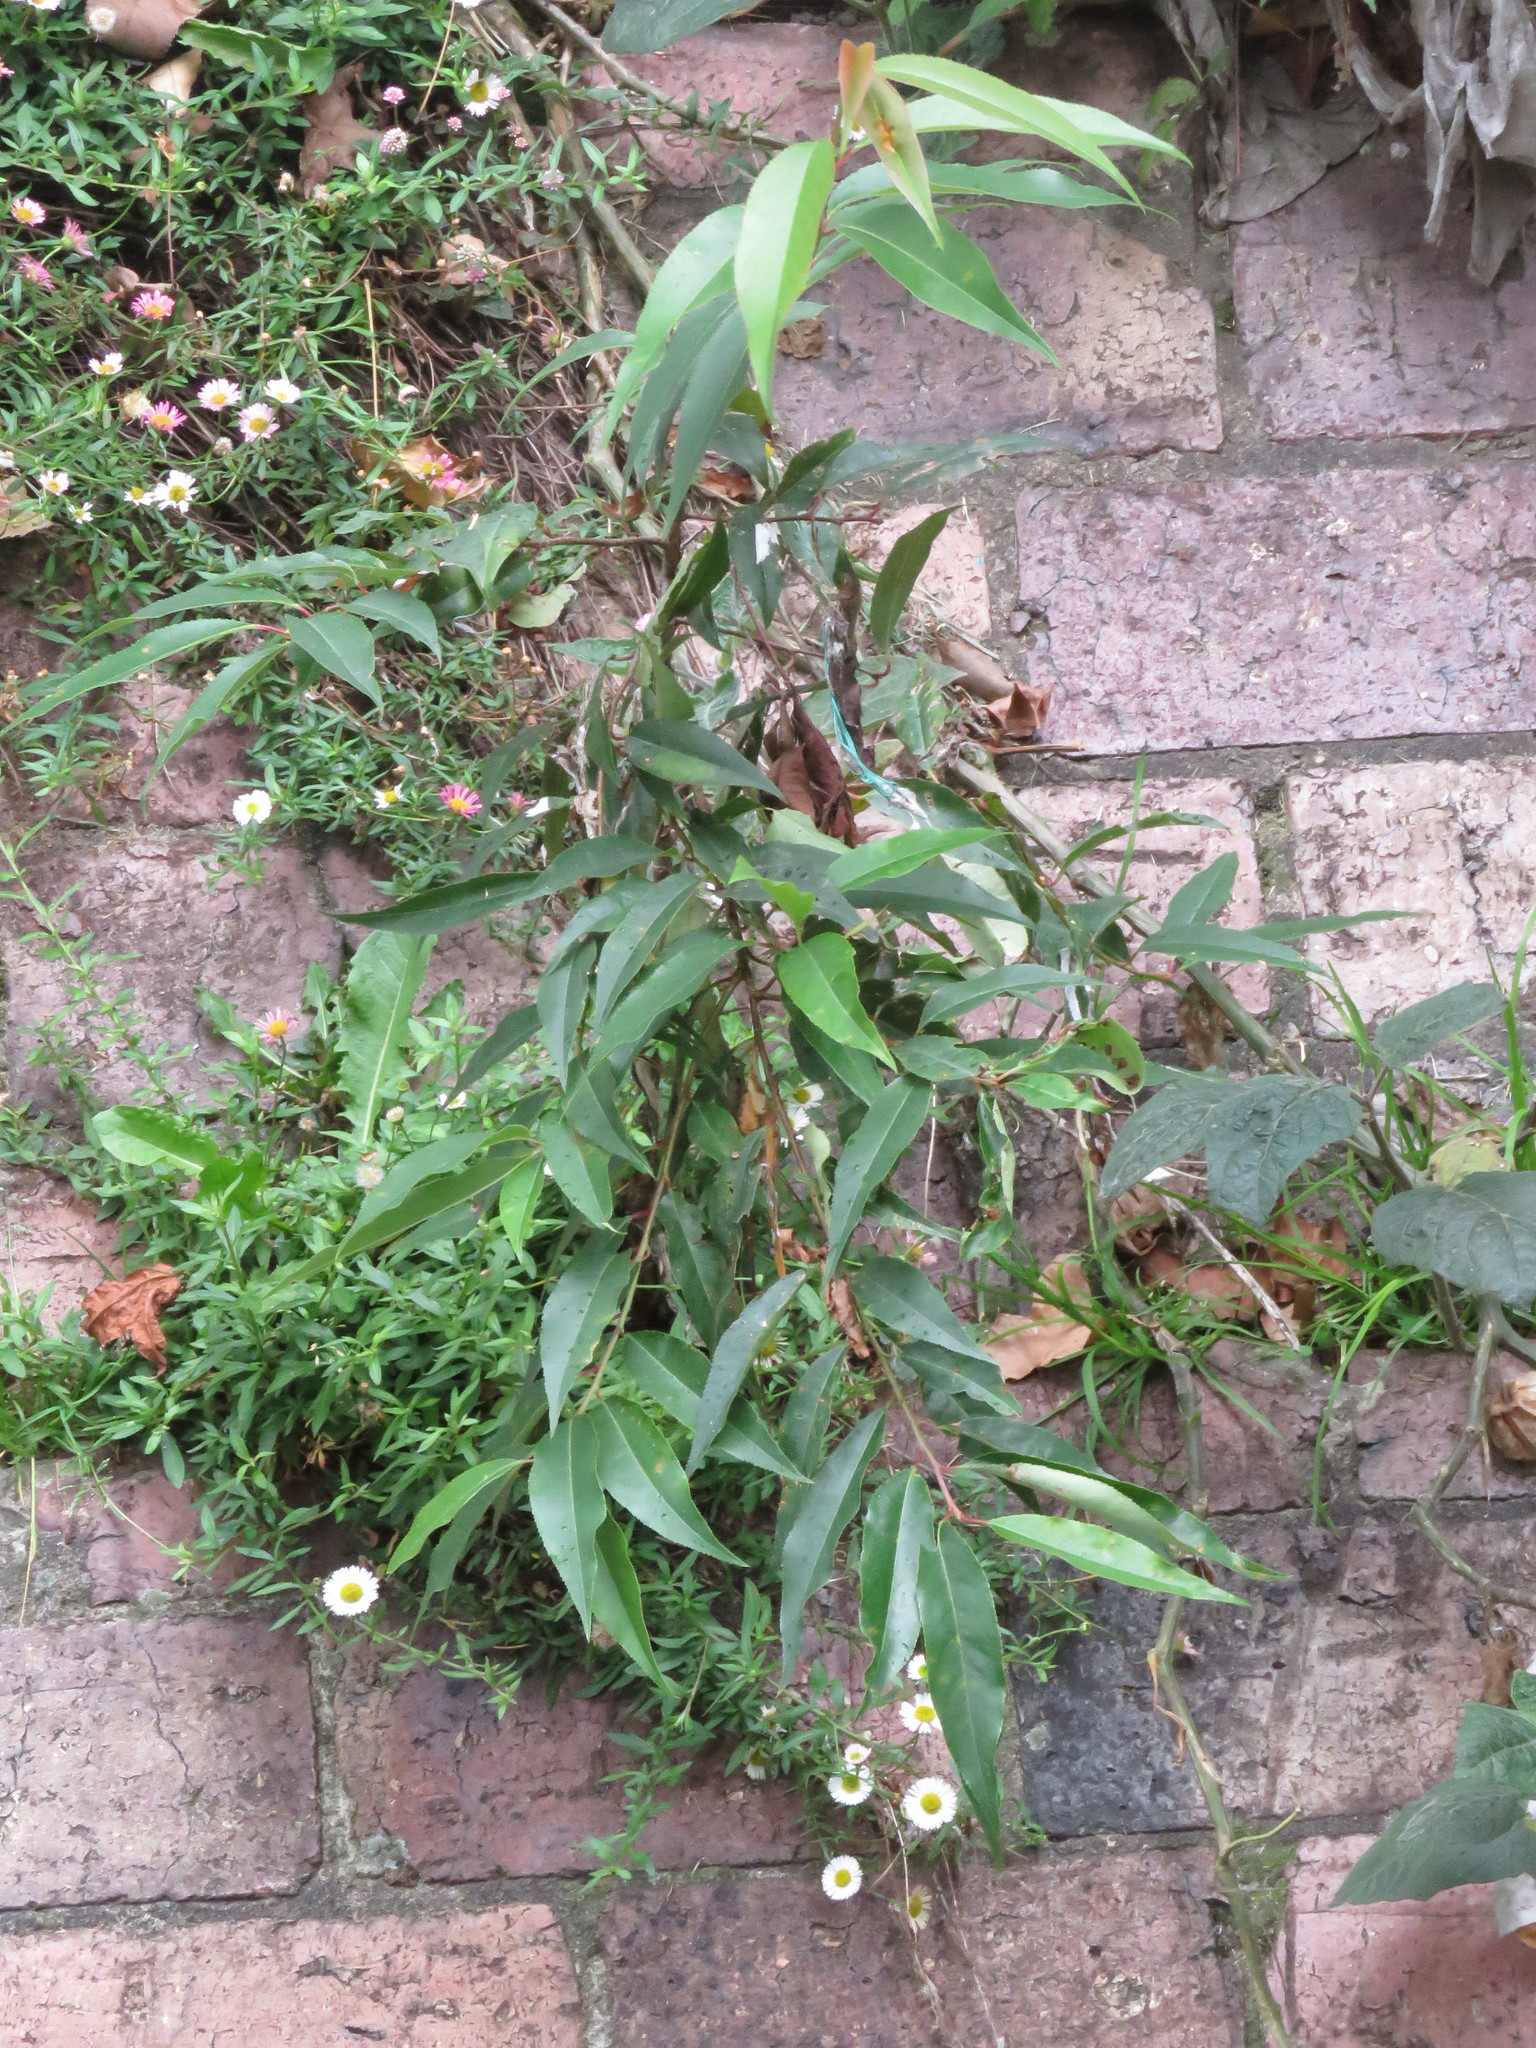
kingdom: Plantae
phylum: Tracheophyta
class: Magnoliopsida
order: Rosales
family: Rosaceae
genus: Prunus
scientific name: Prunus serotina
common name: Black cherry
